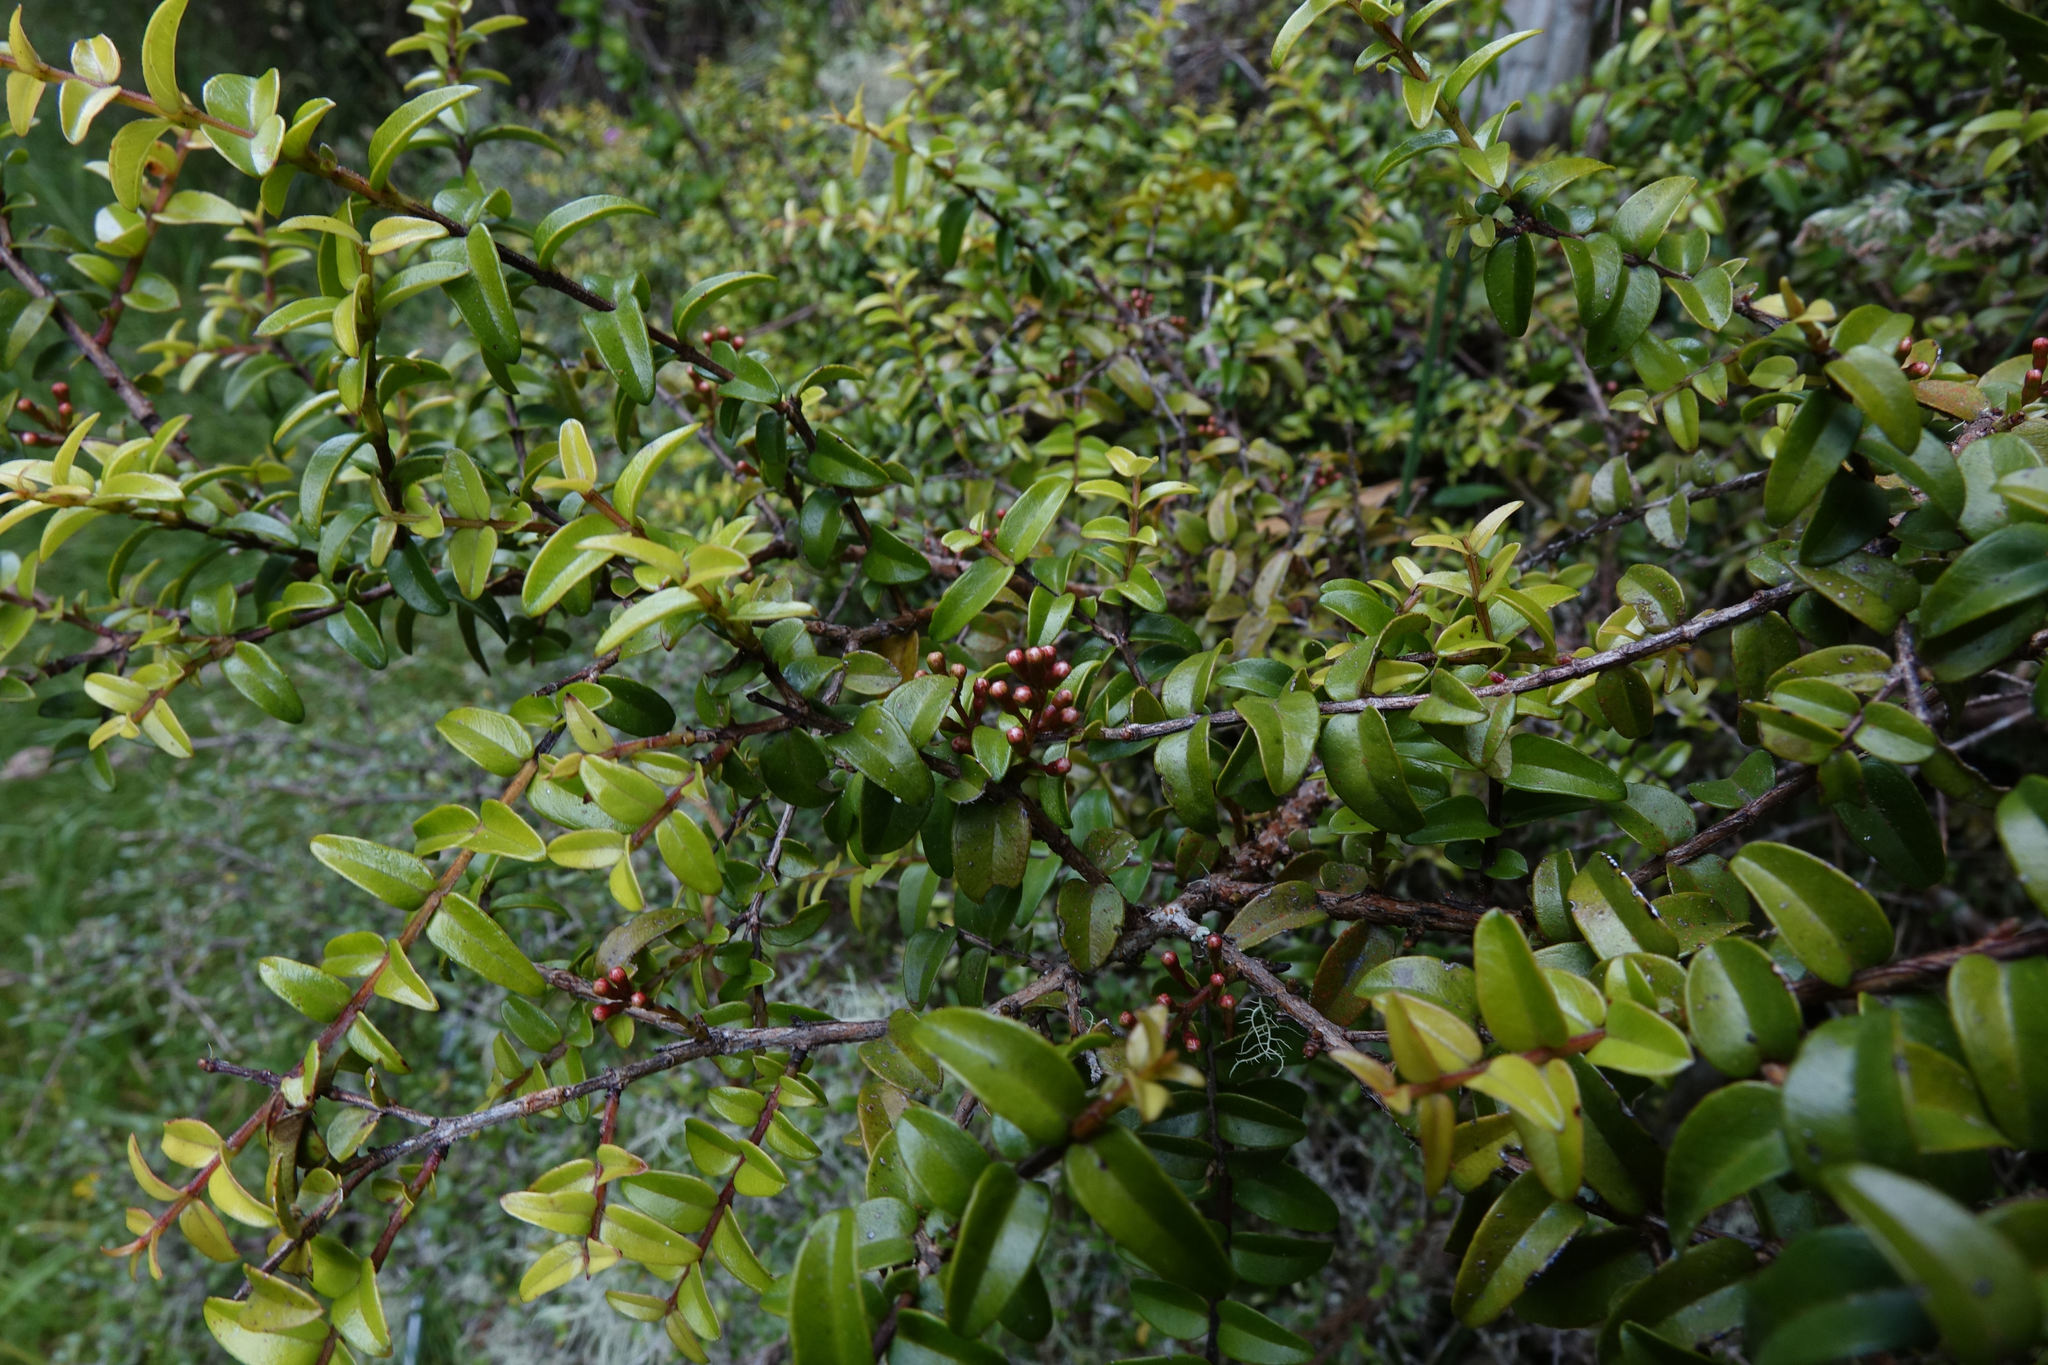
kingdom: Plantae
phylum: Tracheophyta
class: Magnoliopsida
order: Myrtales
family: Myrtaceae
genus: Metrosideros
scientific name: Metrosideros diffusa
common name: Small ratavine
